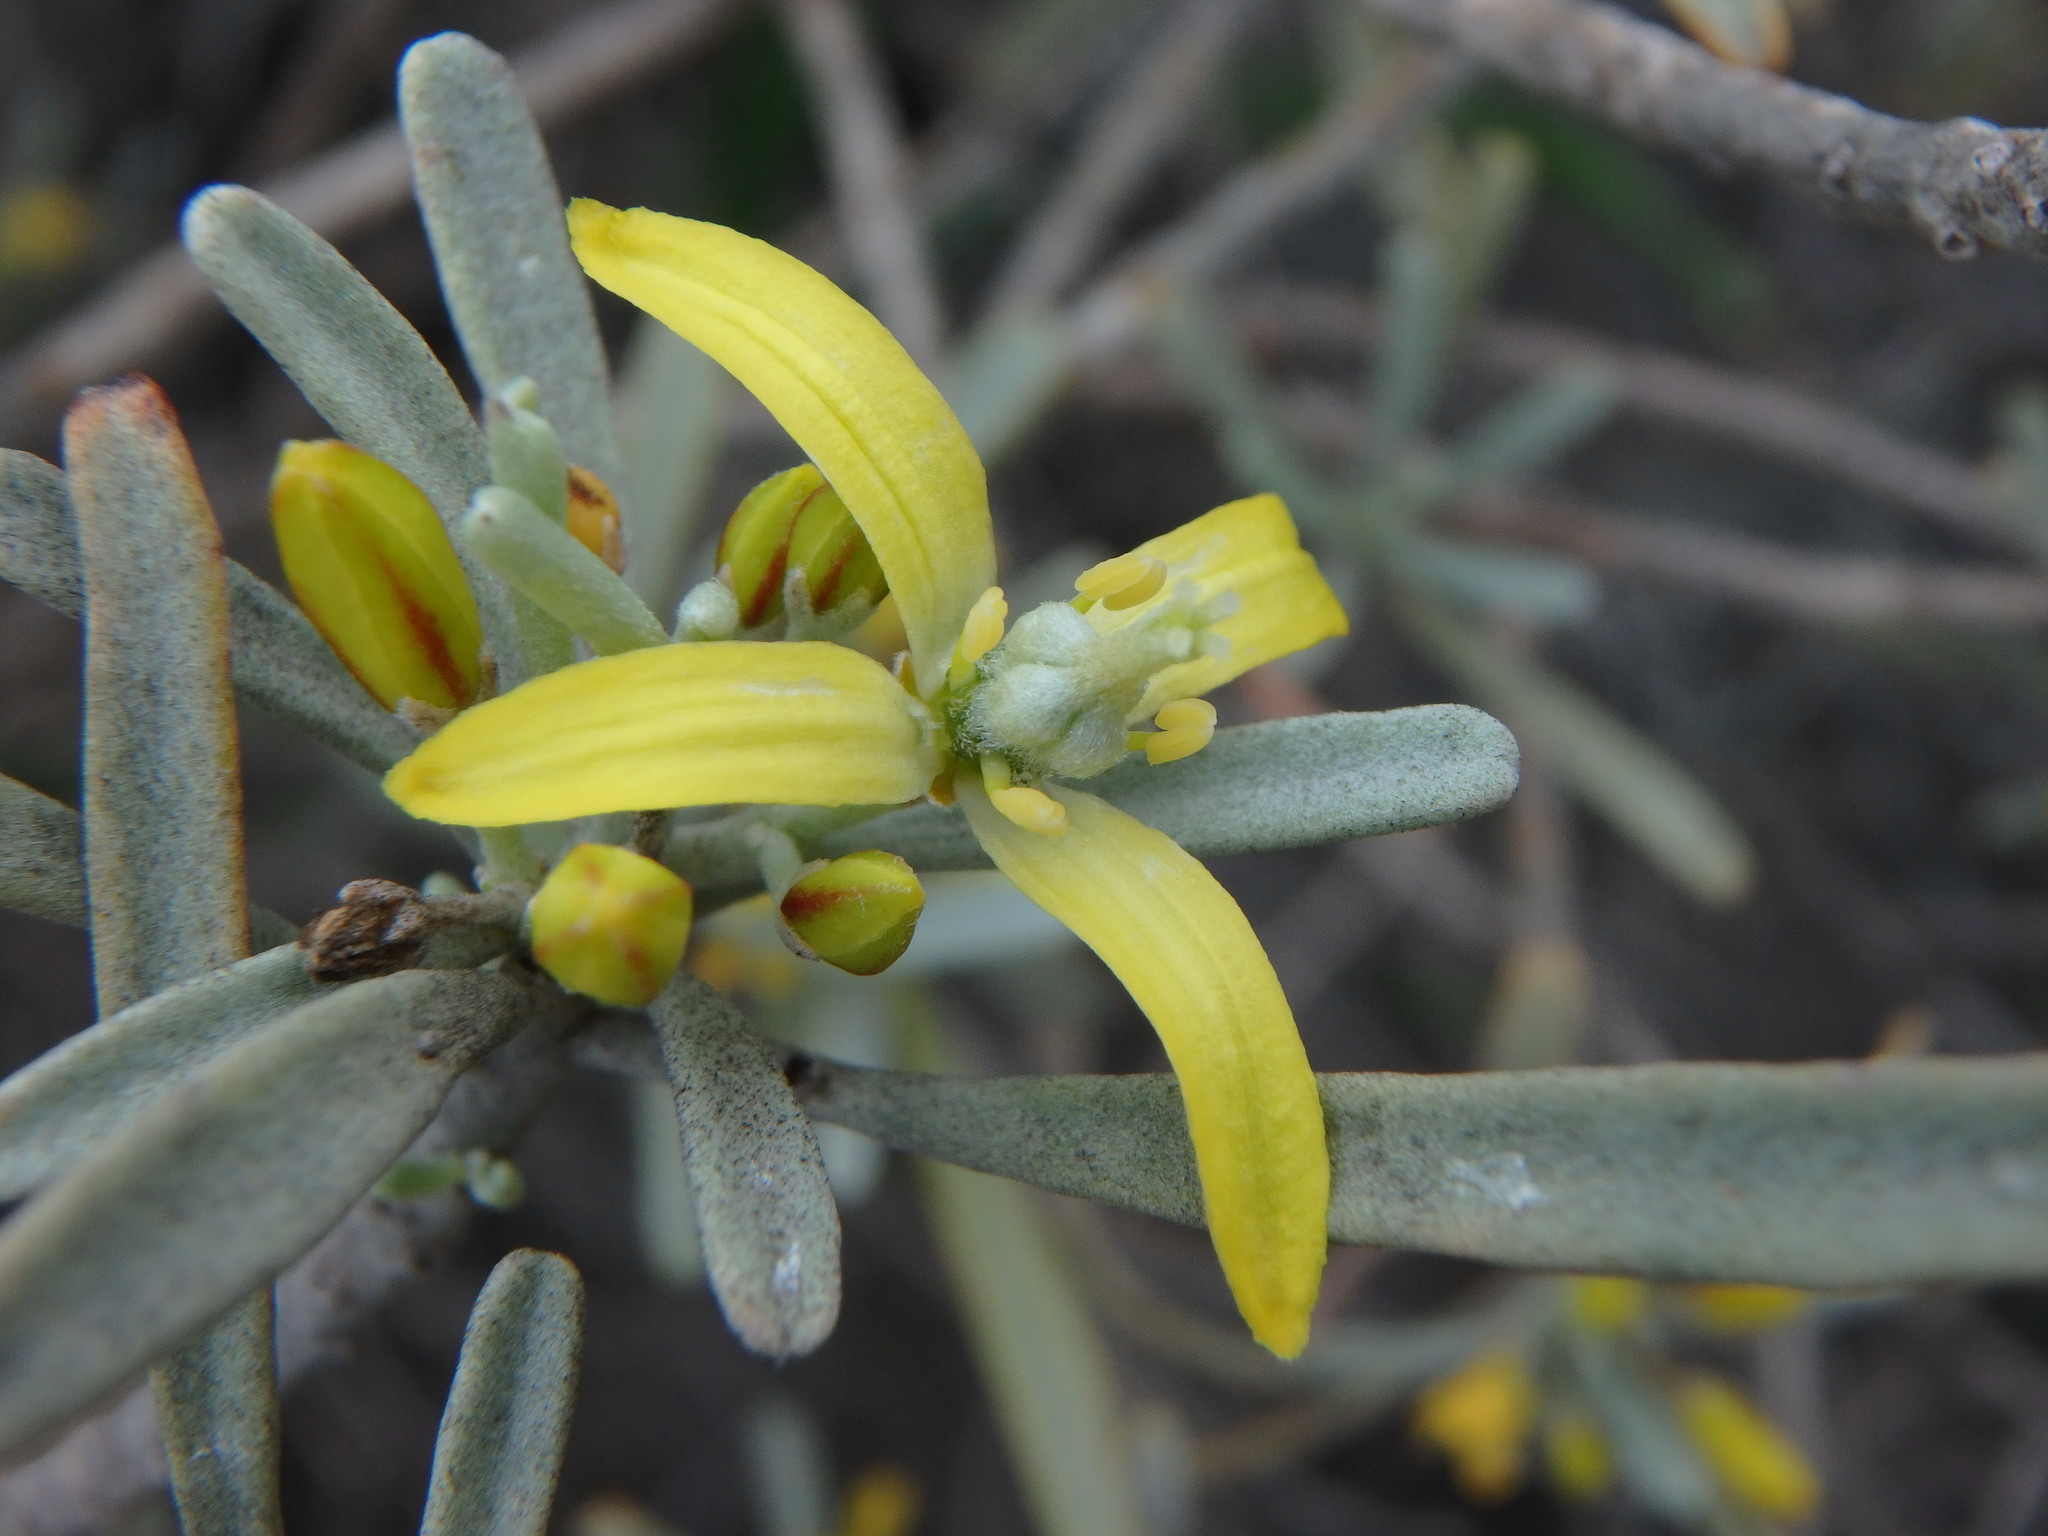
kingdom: Plantae
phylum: Tracheophyta
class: Magnoliopsida
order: Sapindales
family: Rutaceae
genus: Cneorum
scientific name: Cneorum pulverulentum
